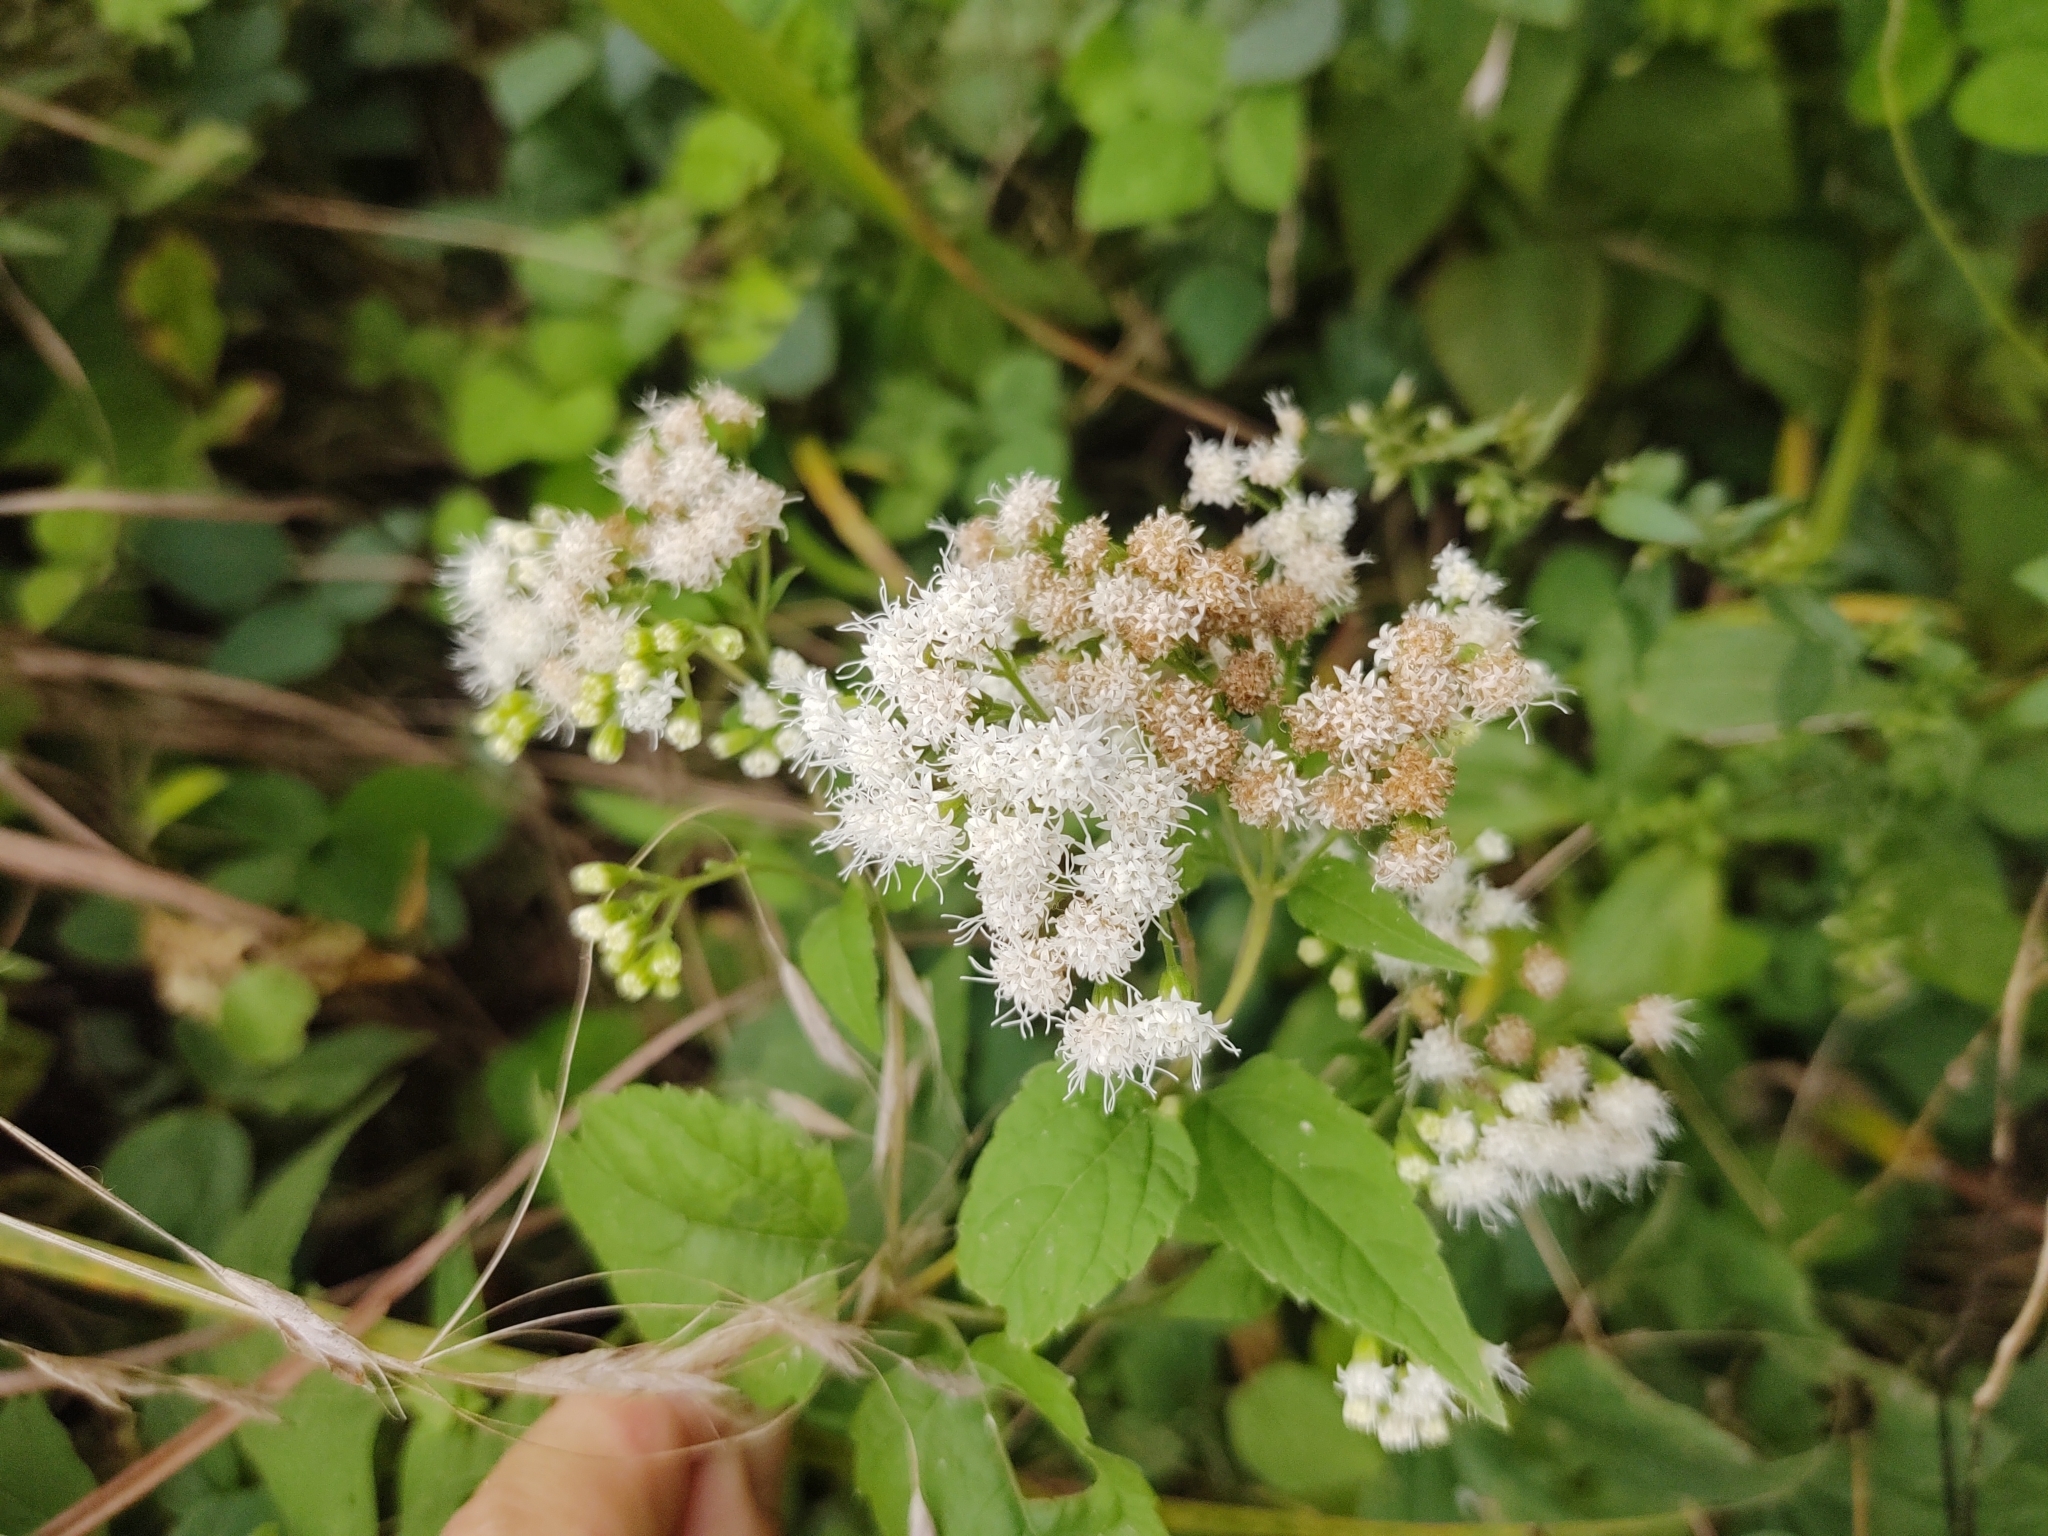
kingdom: Plantae
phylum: Tracheophyta
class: Magnoliopsida
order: Asterales
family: Asteraceae
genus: Ageratina
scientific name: Ageratina altissima
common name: White snakeroot
